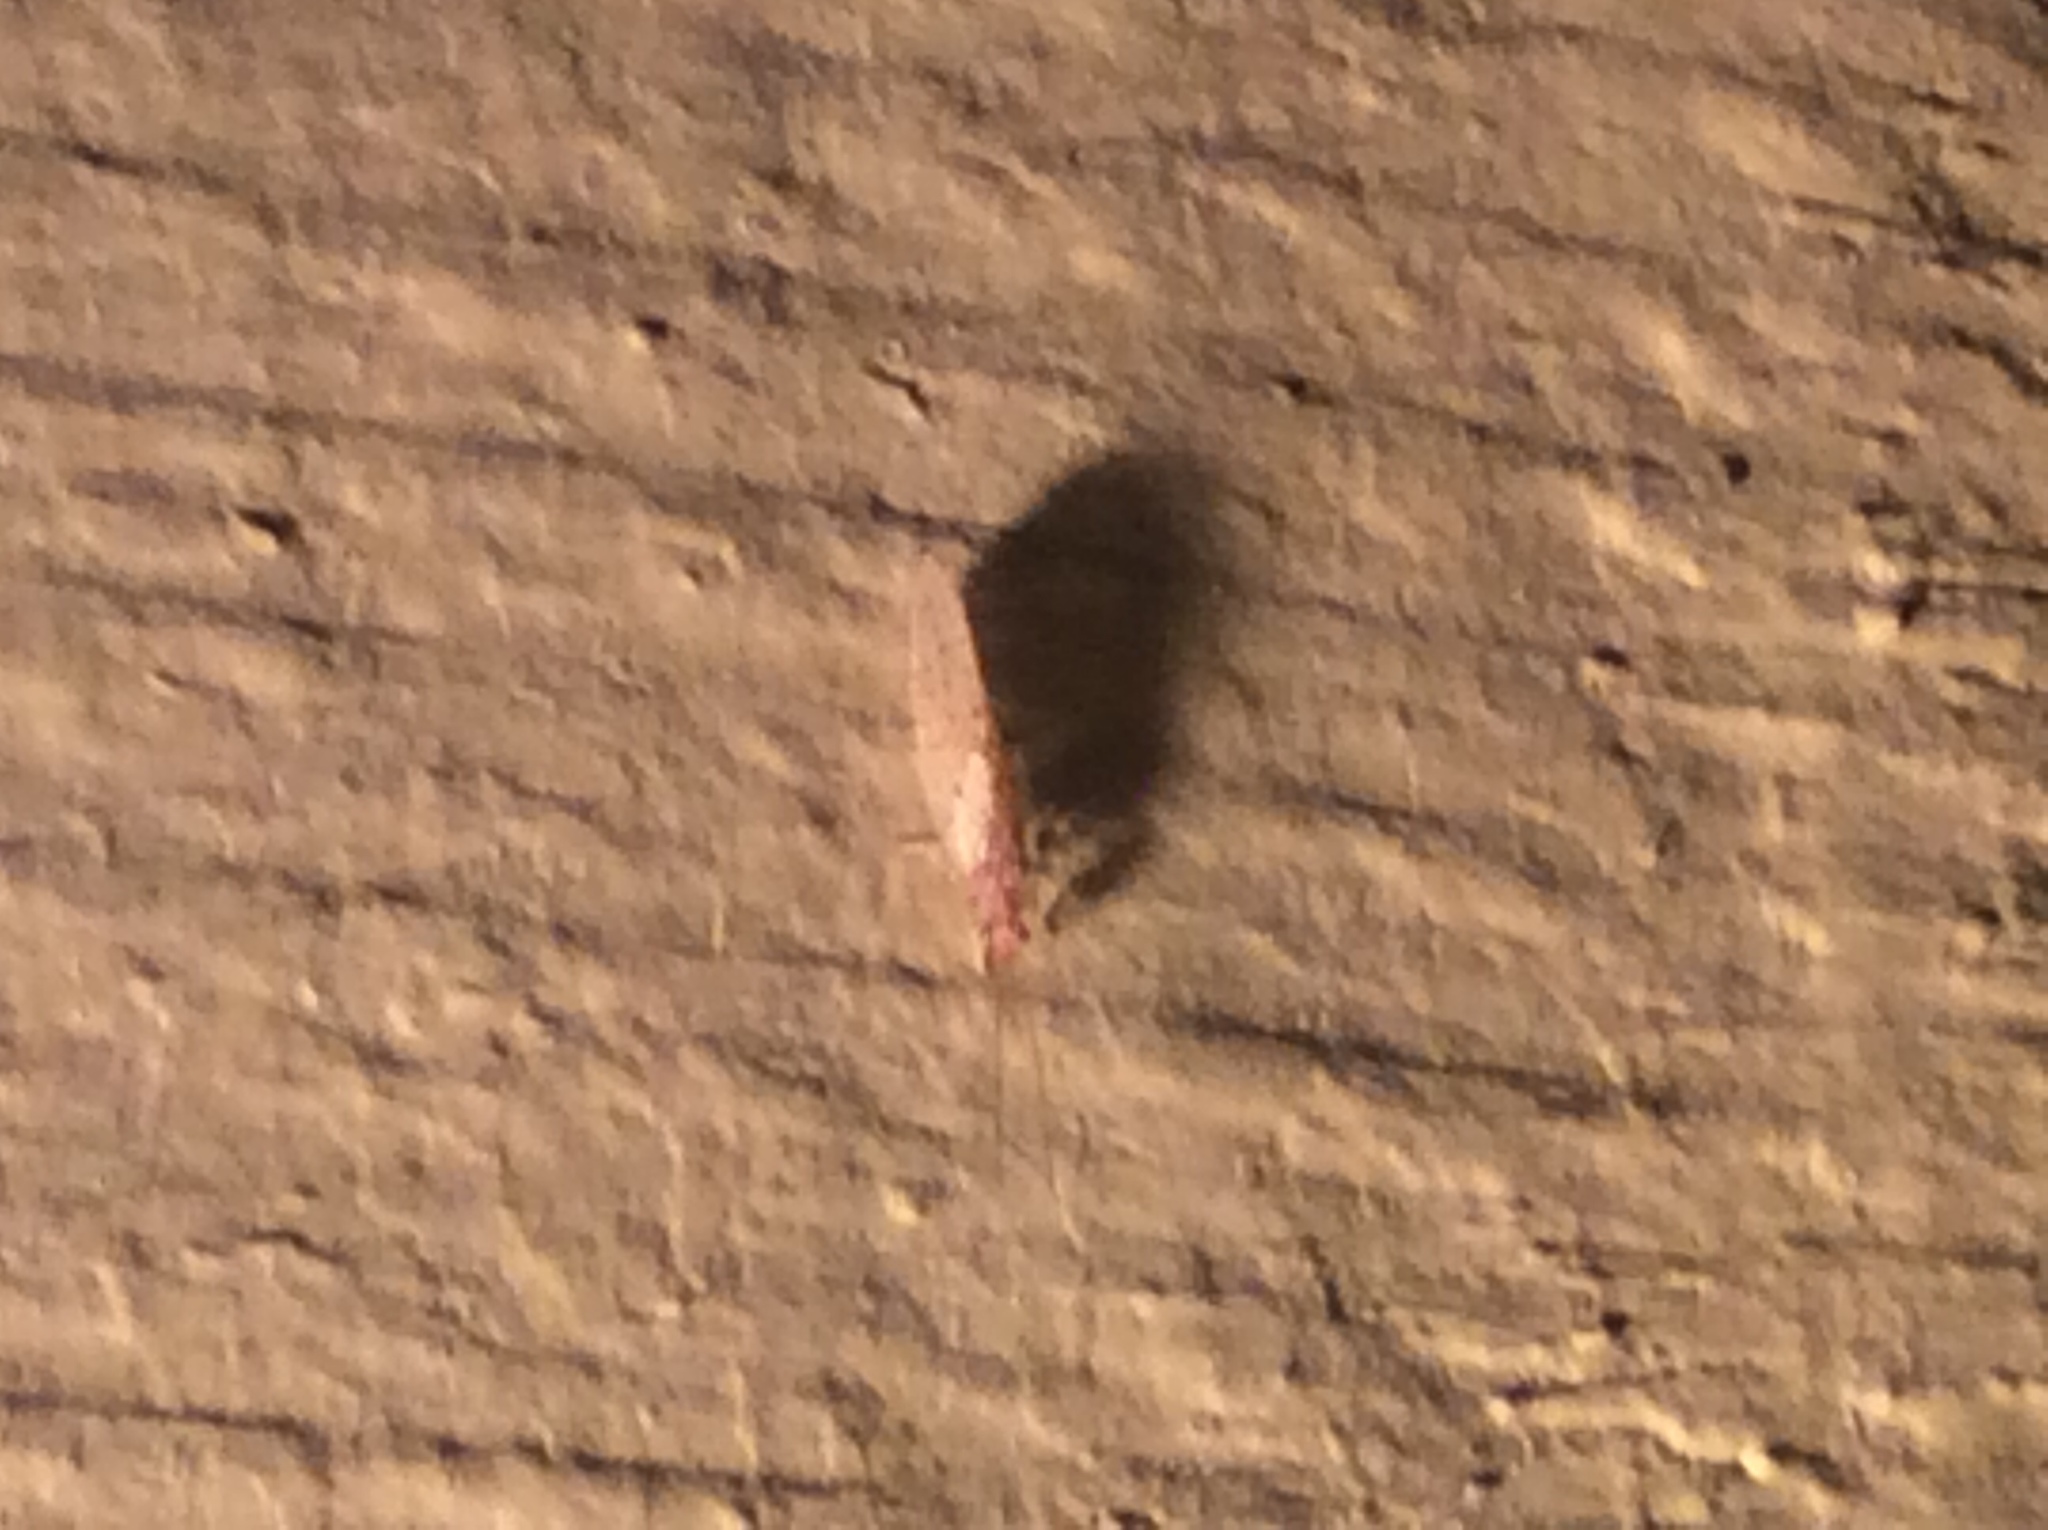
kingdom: Animalia
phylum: Arthropoda
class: Insecta
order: Neuroptera
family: Hemerobiidae
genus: Micromus
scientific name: Micromus subanticus
